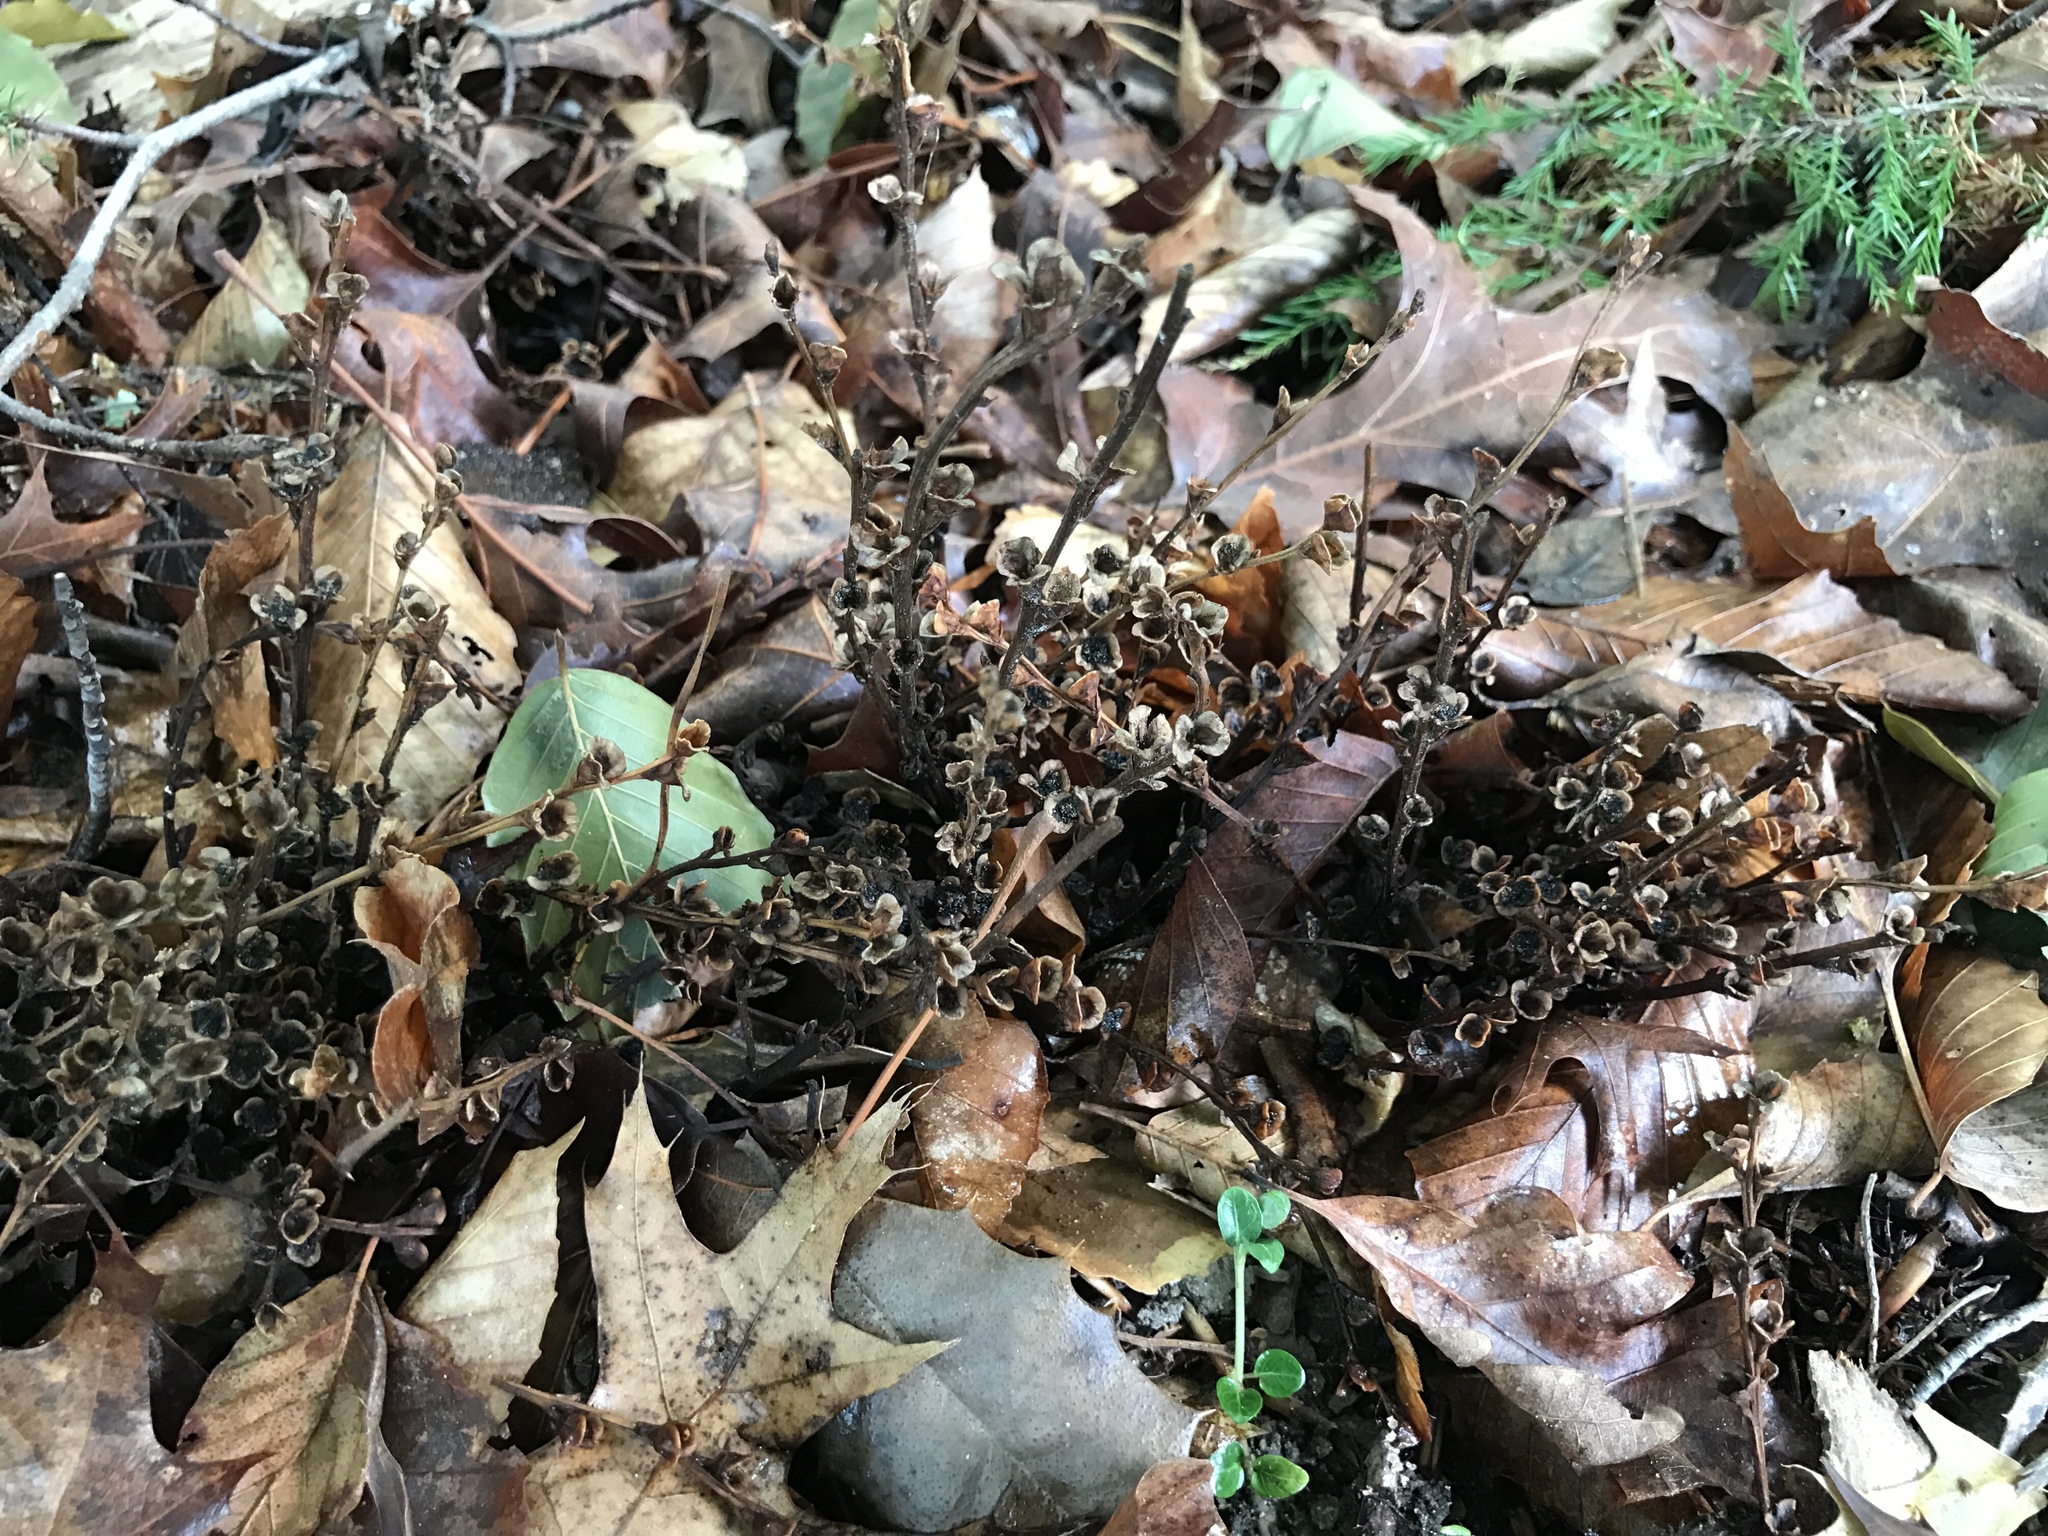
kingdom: Plantae
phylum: Tracheophyta
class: Magnoliopsida
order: Lamiales
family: Orobanchaceae
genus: Epifagus
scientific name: Epifagus virginiana
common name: Beechdrops
